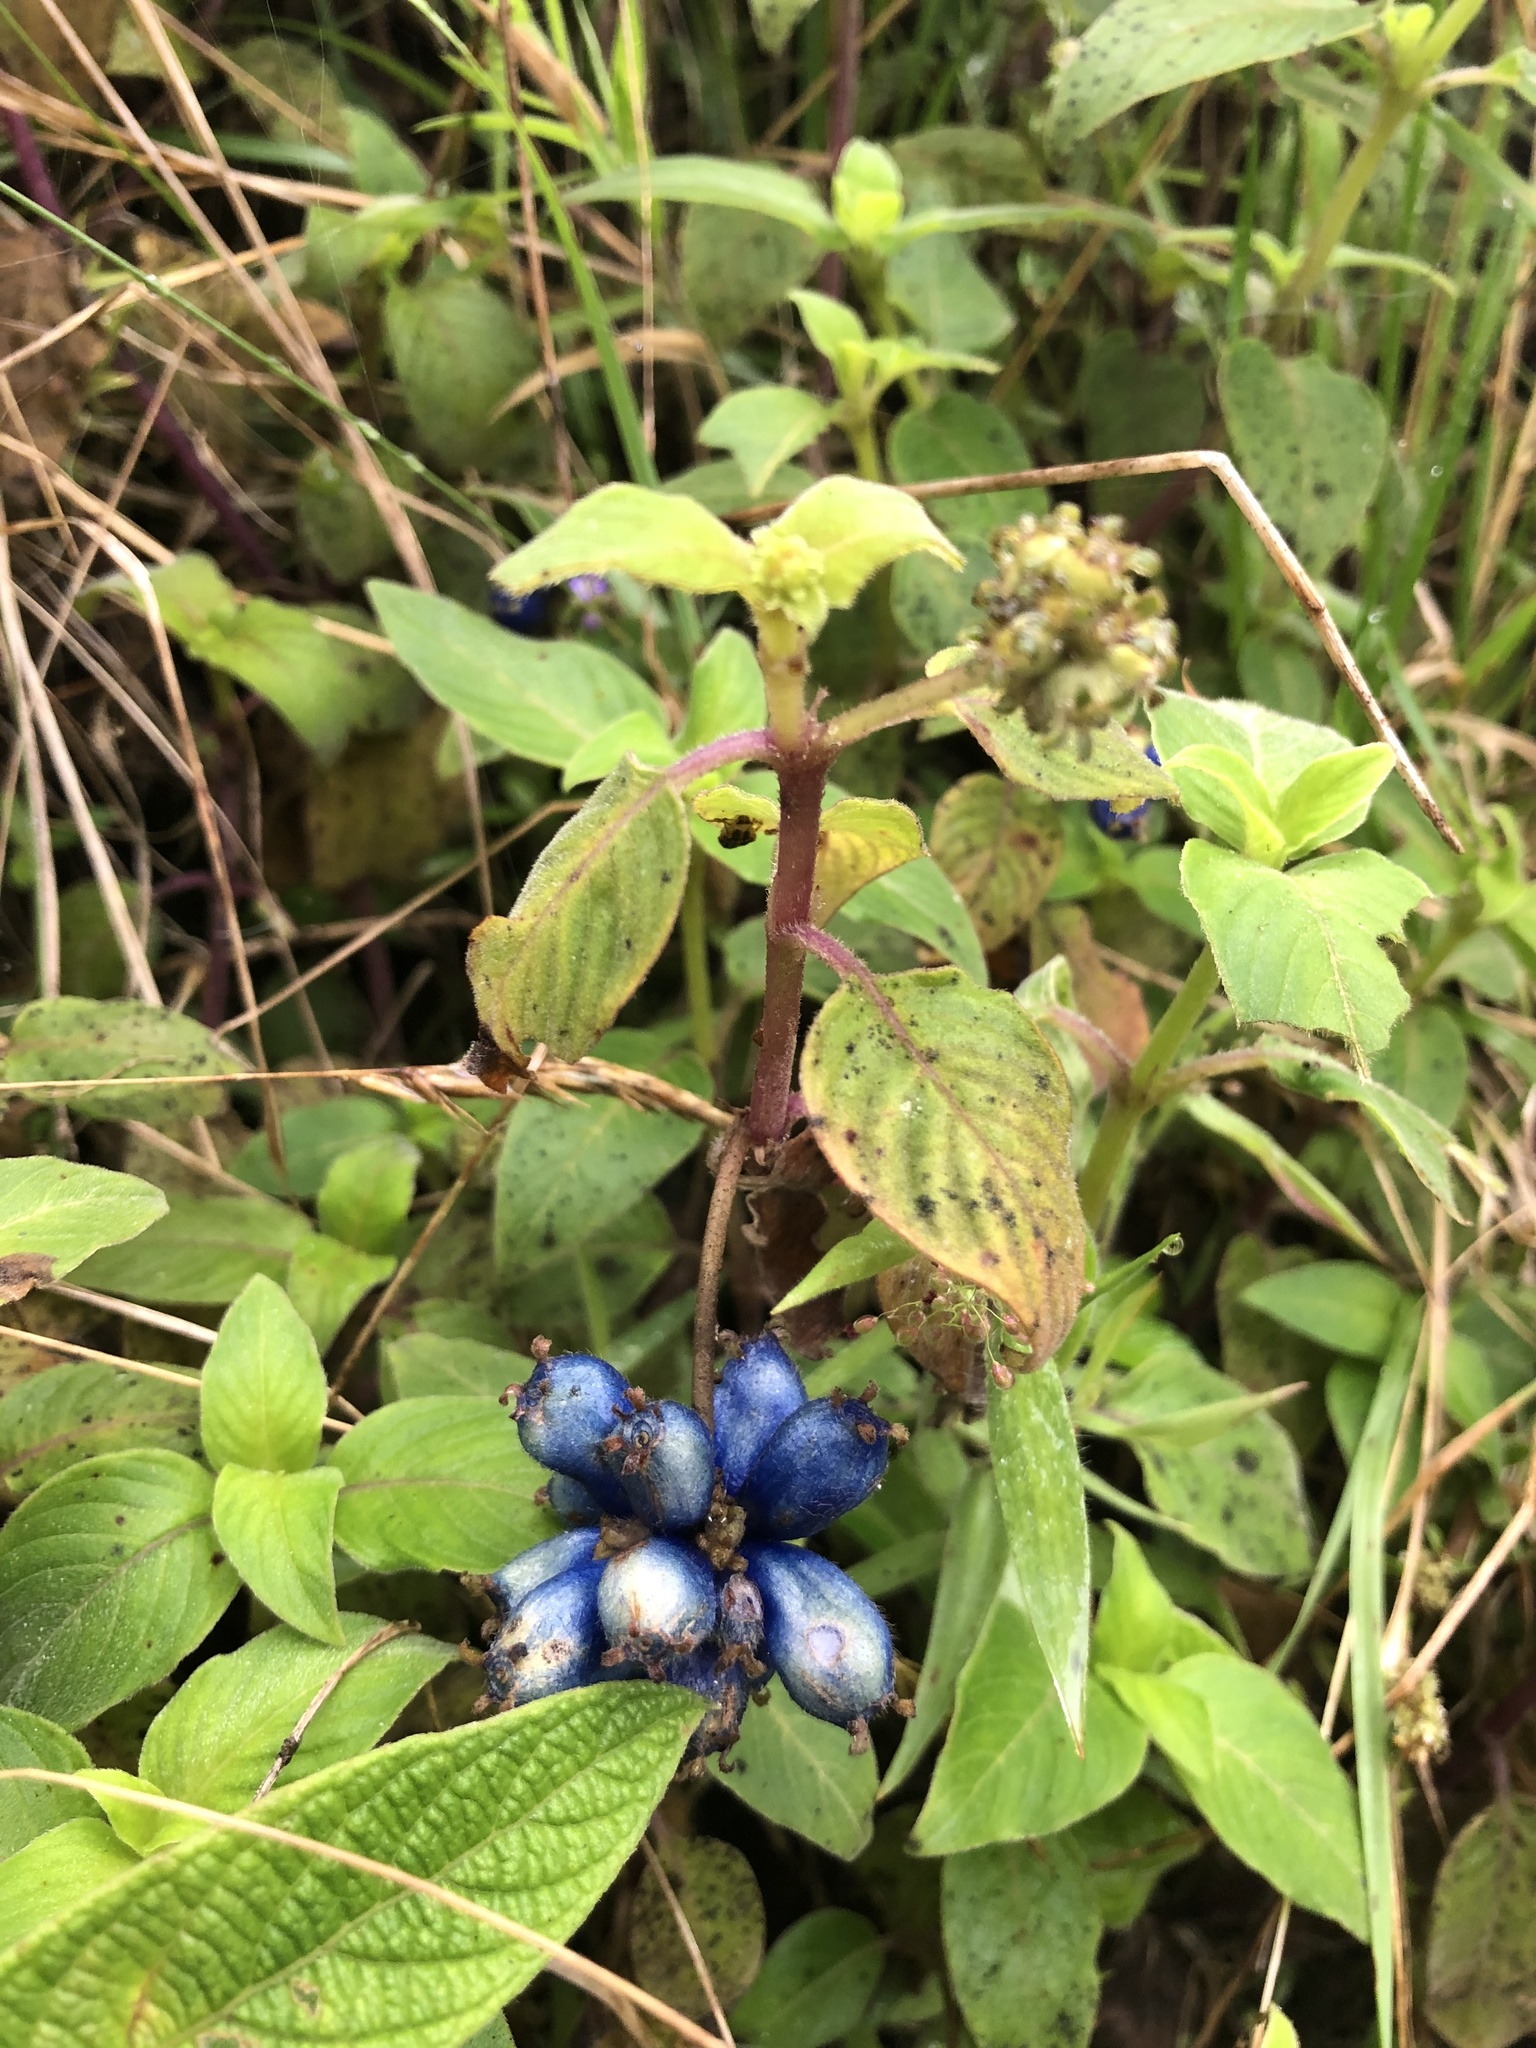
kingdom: Plantae
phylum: Tracheophyta
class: Magnoliopsida
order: Gentianales
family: Rubiaceae
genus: Coccocypselum
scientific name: Coccocypselum lanceolatum
